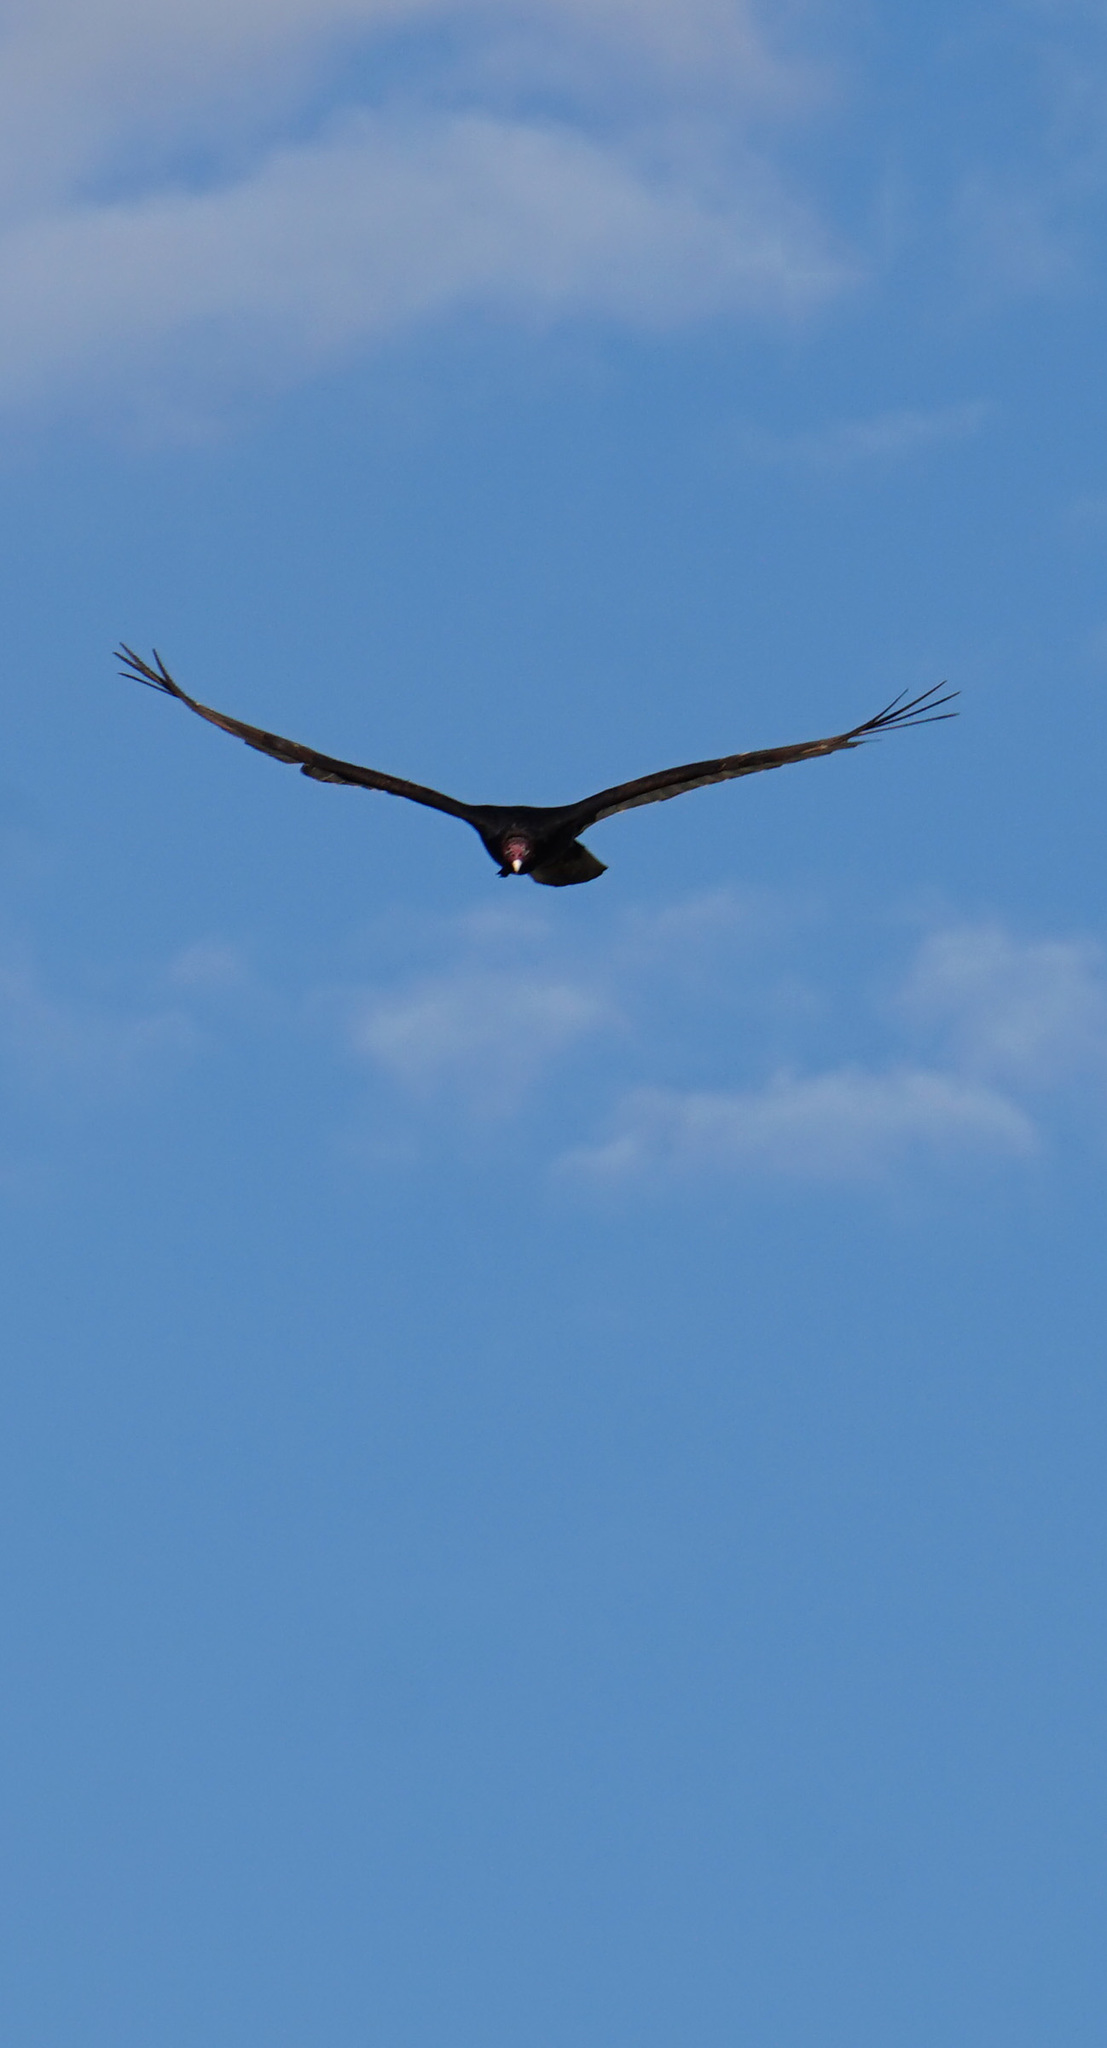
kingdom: Animalia
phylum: Chordata
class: Aves
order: Accipitriformes
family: Cathartidae
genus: Cathartes
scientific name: Cathartes aura
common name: Turkey vulture
